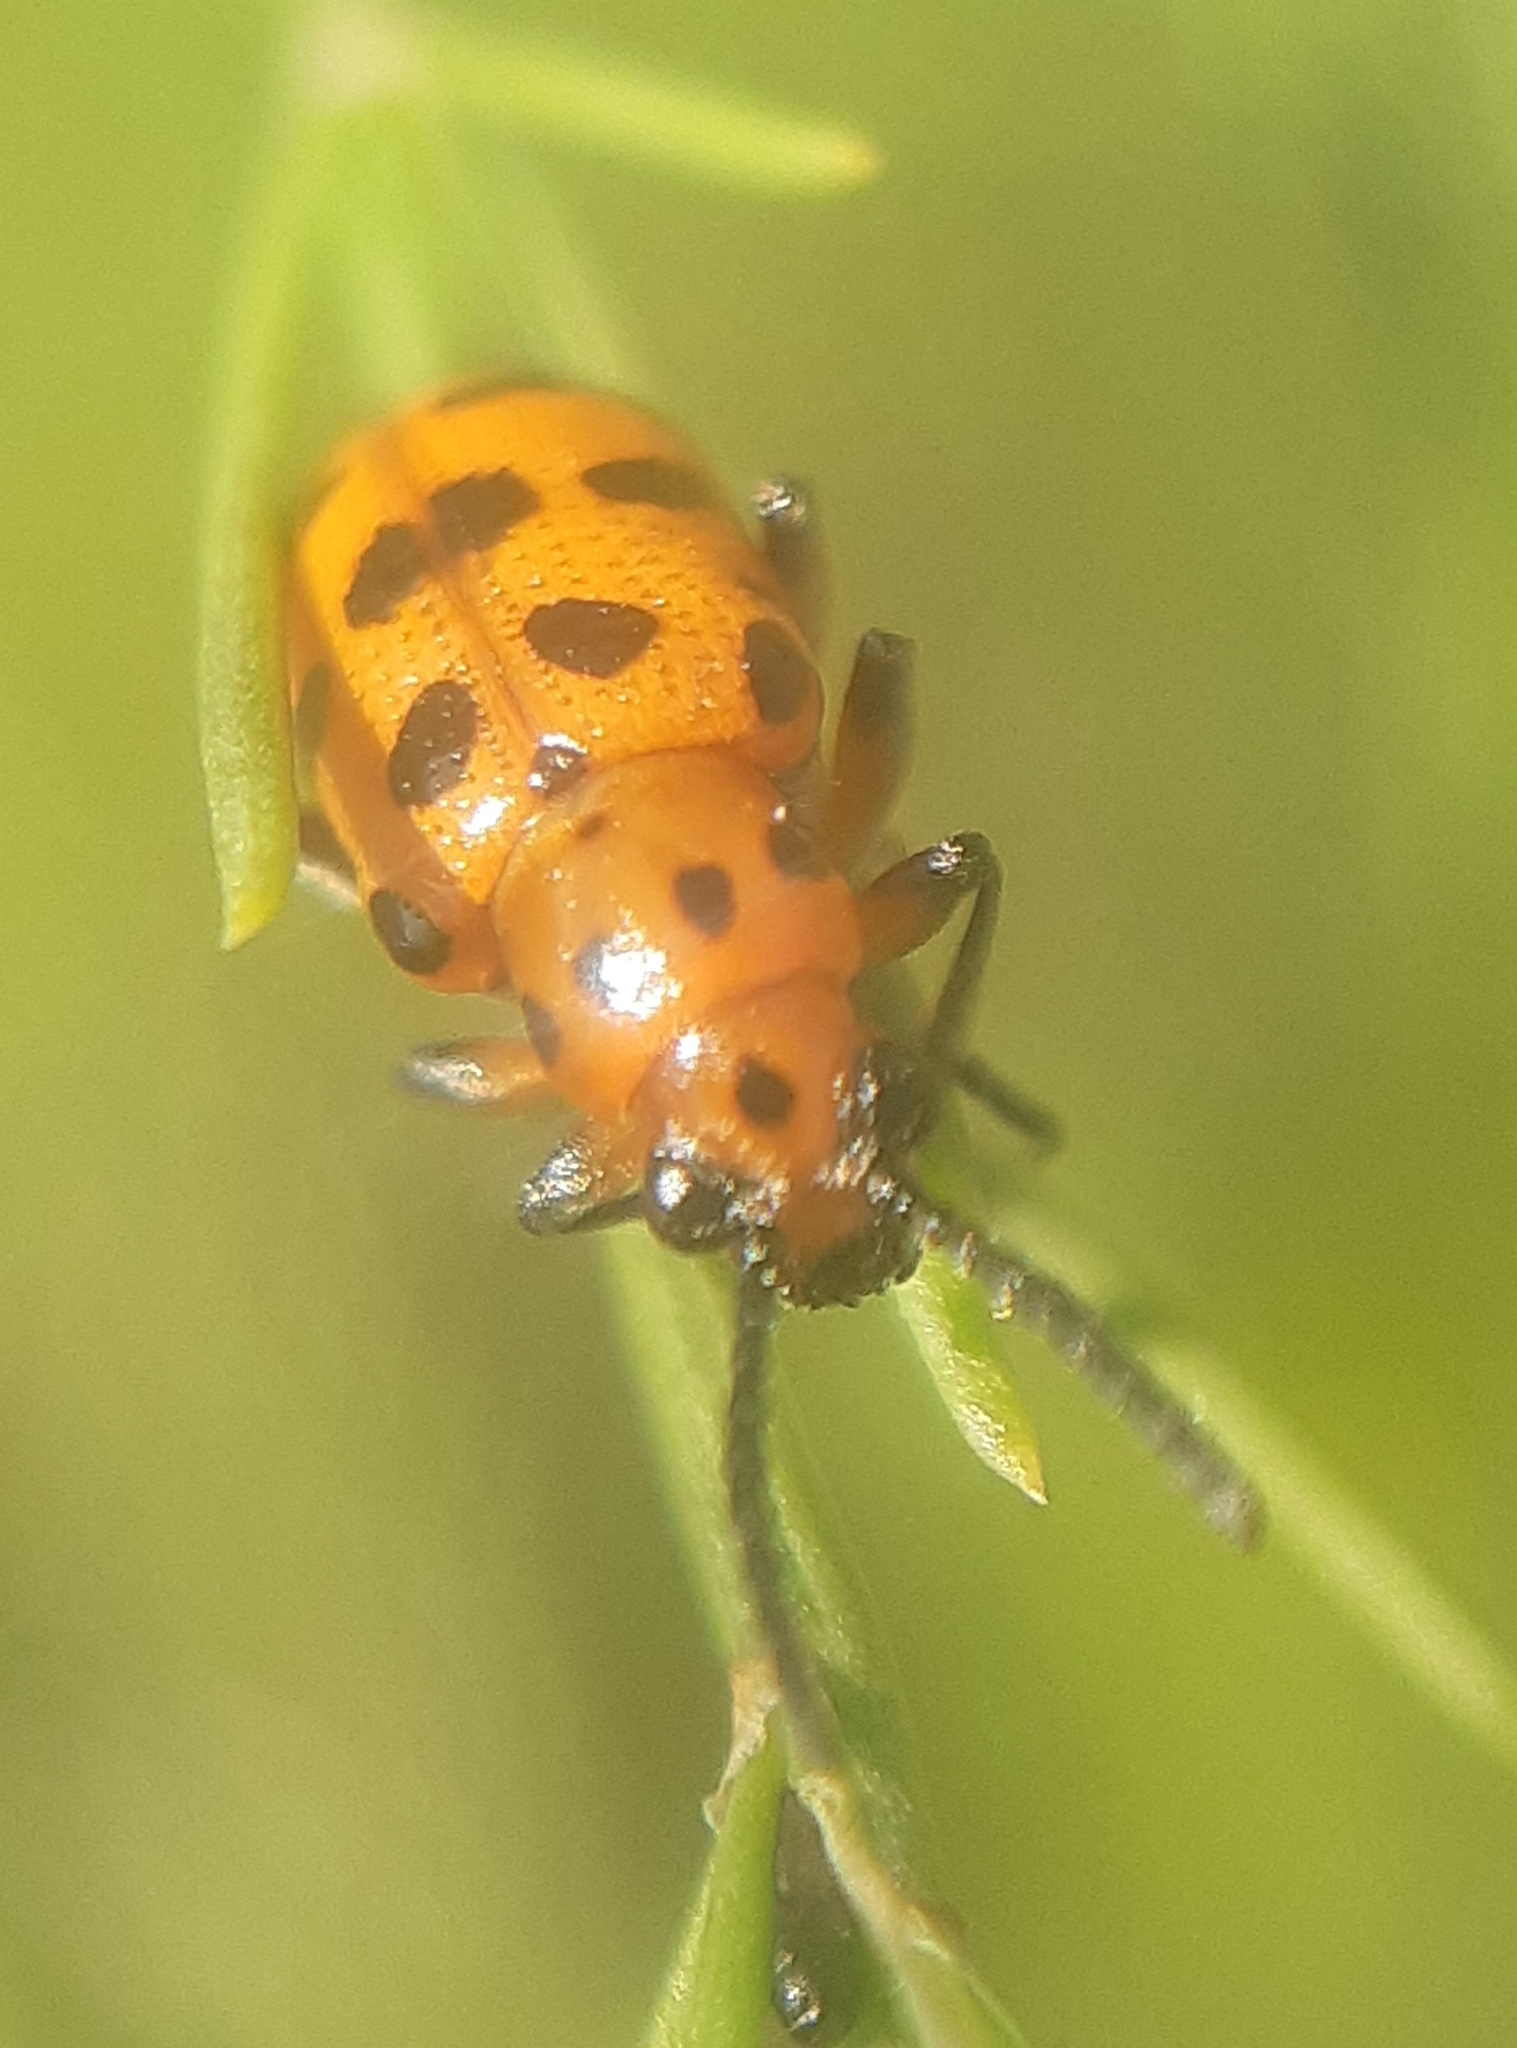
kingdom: Animalia
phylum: Arthropoda
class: Insecta
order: Coleoptera
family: Chrysomelidae
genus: Crioceris
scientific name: Crioceris quatuordecimpunctata
